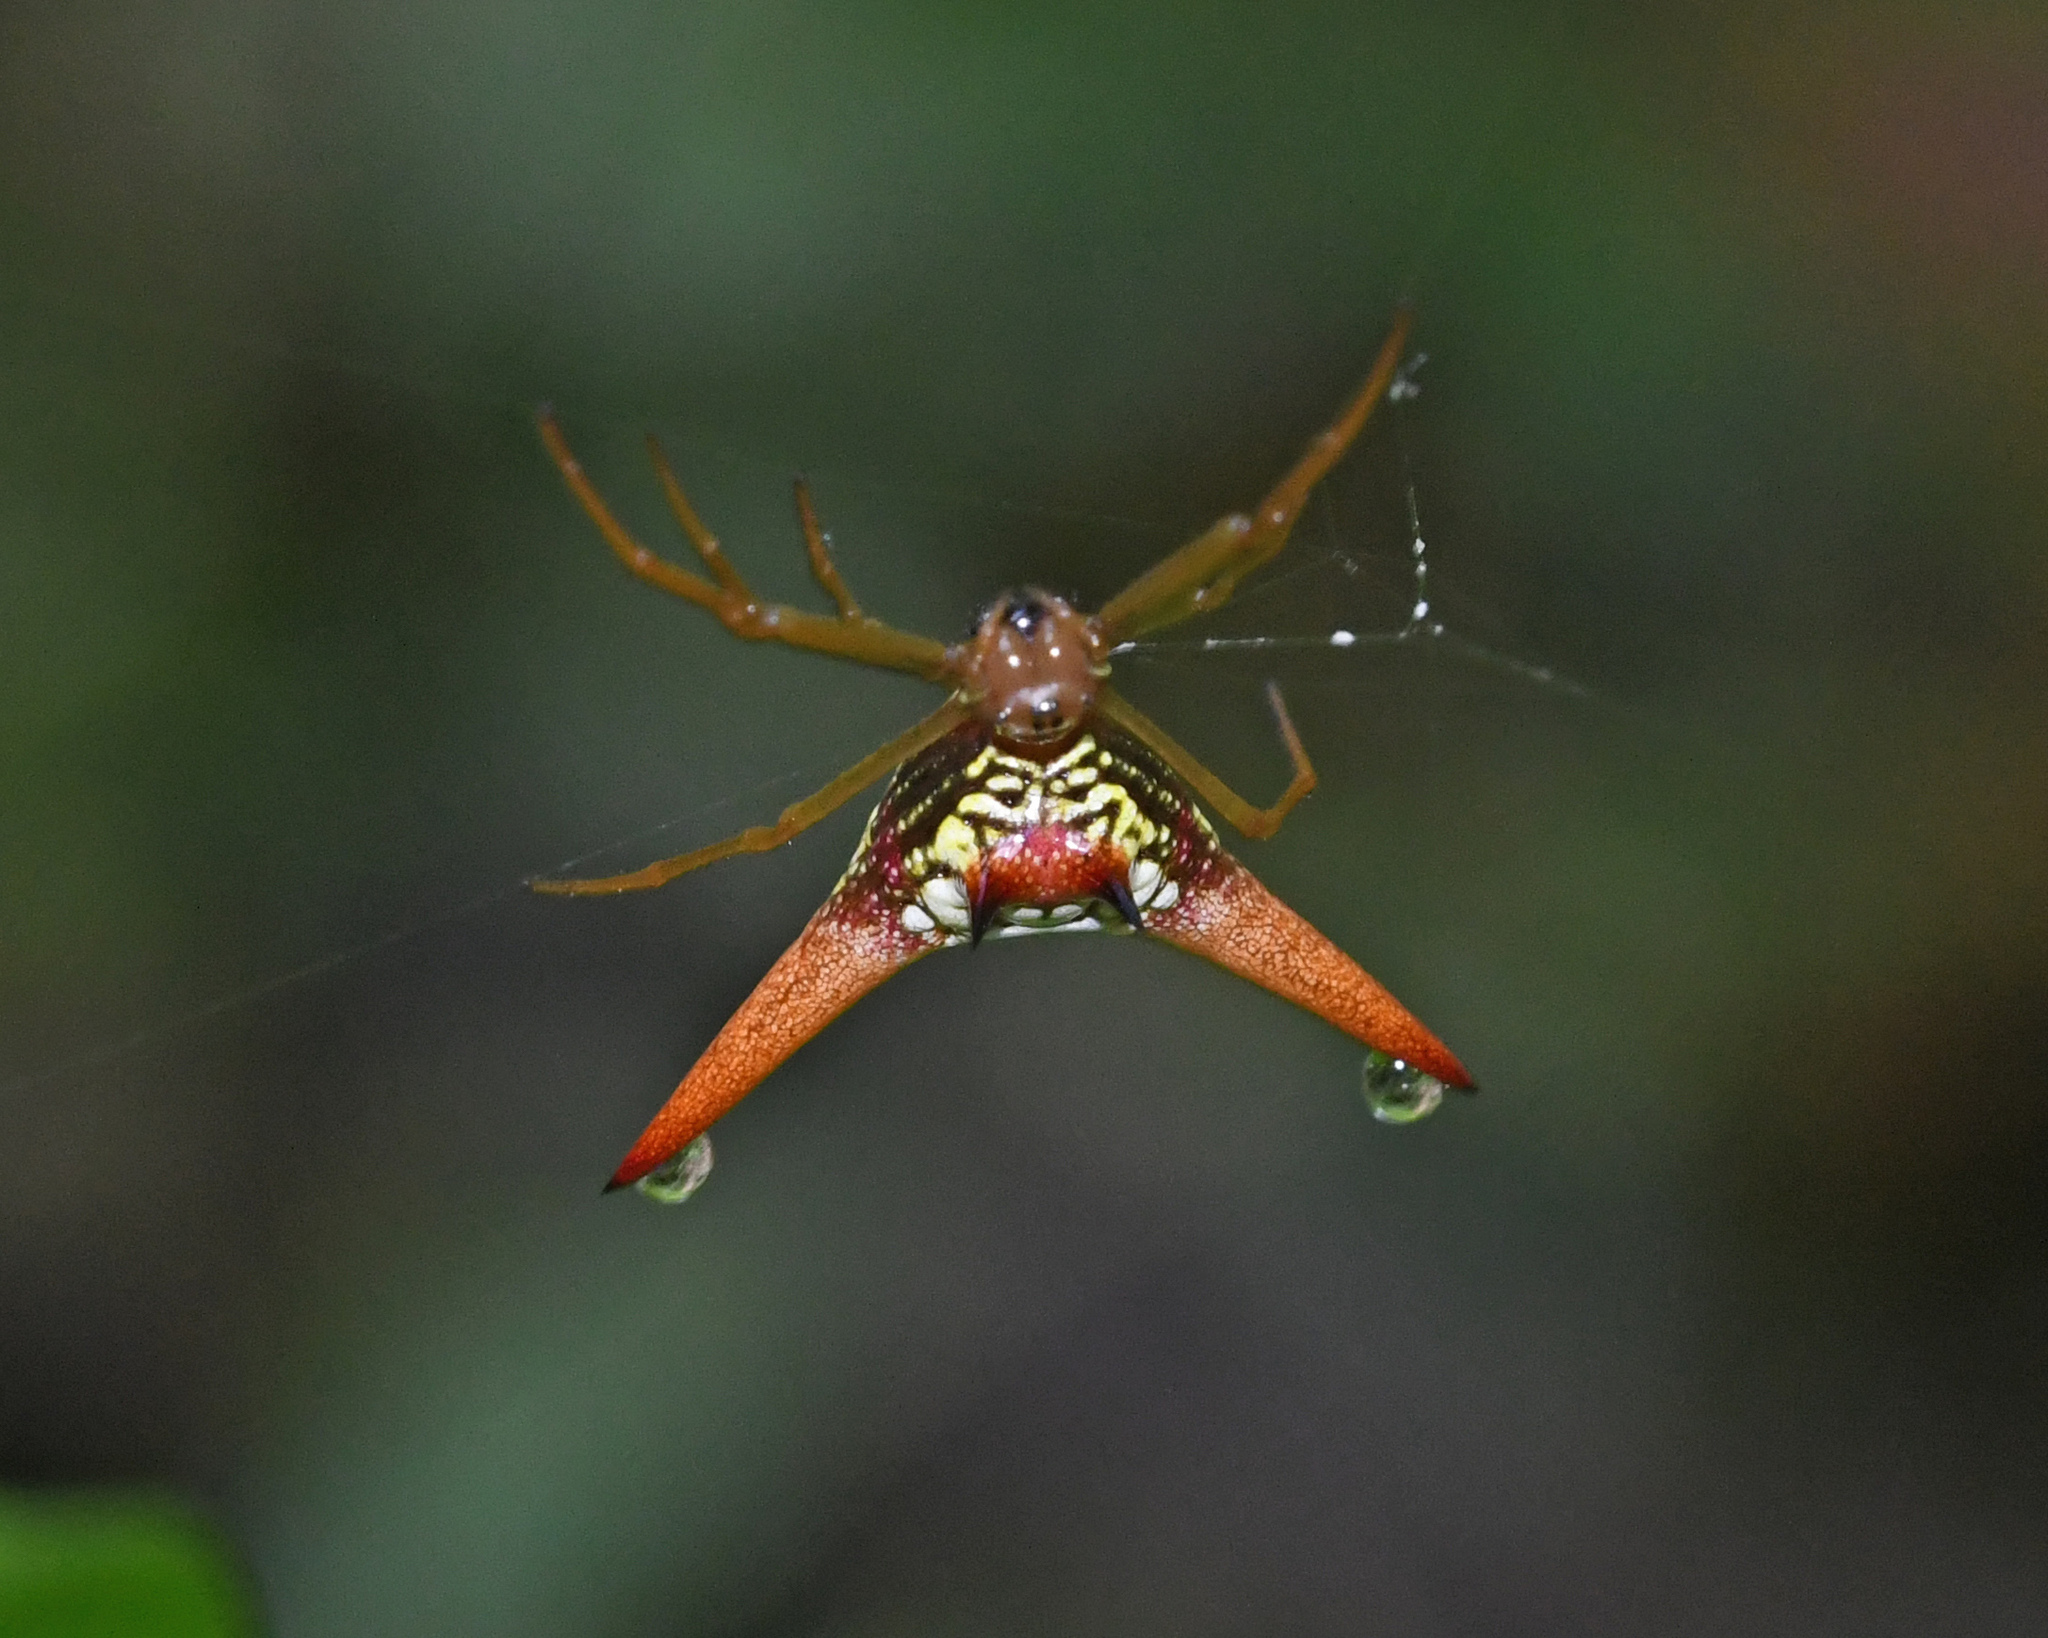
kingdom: Animalia
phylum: Arthropoda
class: Arachnida
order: Araneae
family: Araneidae
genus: Micrathena
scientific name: Micrathena militaris
